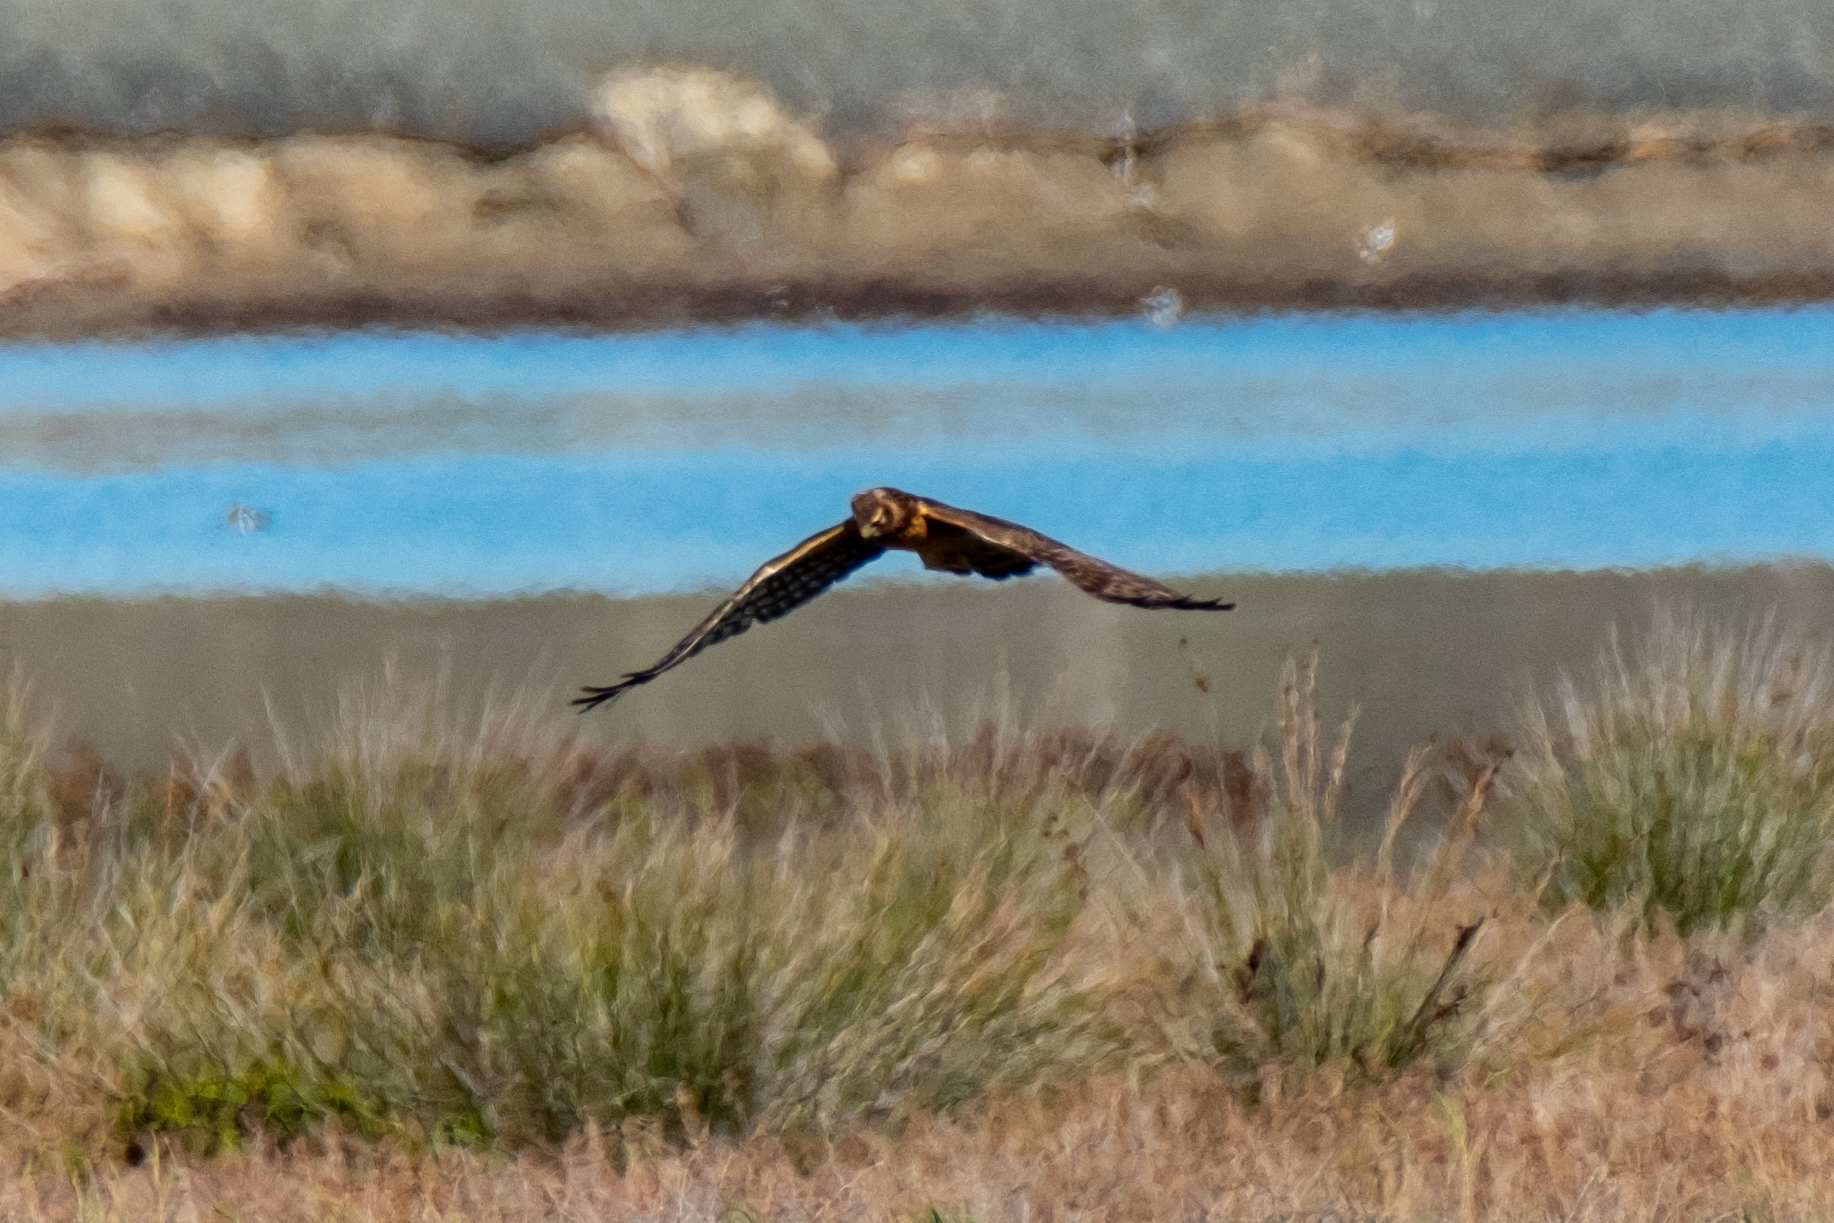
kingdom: Animalia
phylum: Chordata
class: Aves
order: Accipitriformes
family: Accipitridae
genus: Circus
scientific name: Circus cyaneus
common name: Hen harrier
